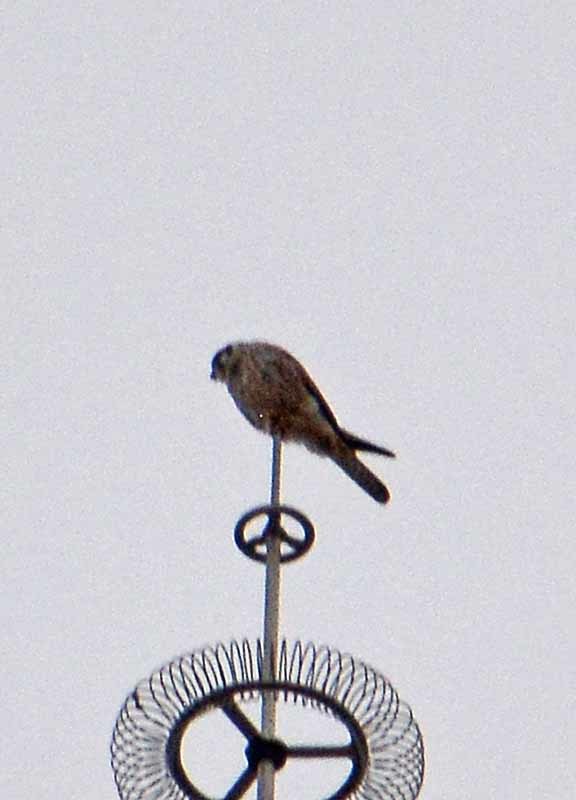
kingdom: Animalia
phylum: Chordata
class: Aves
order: Falconiformes
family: Falconidae
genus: Falco
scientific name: Falco sparverius
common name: American kestrel
